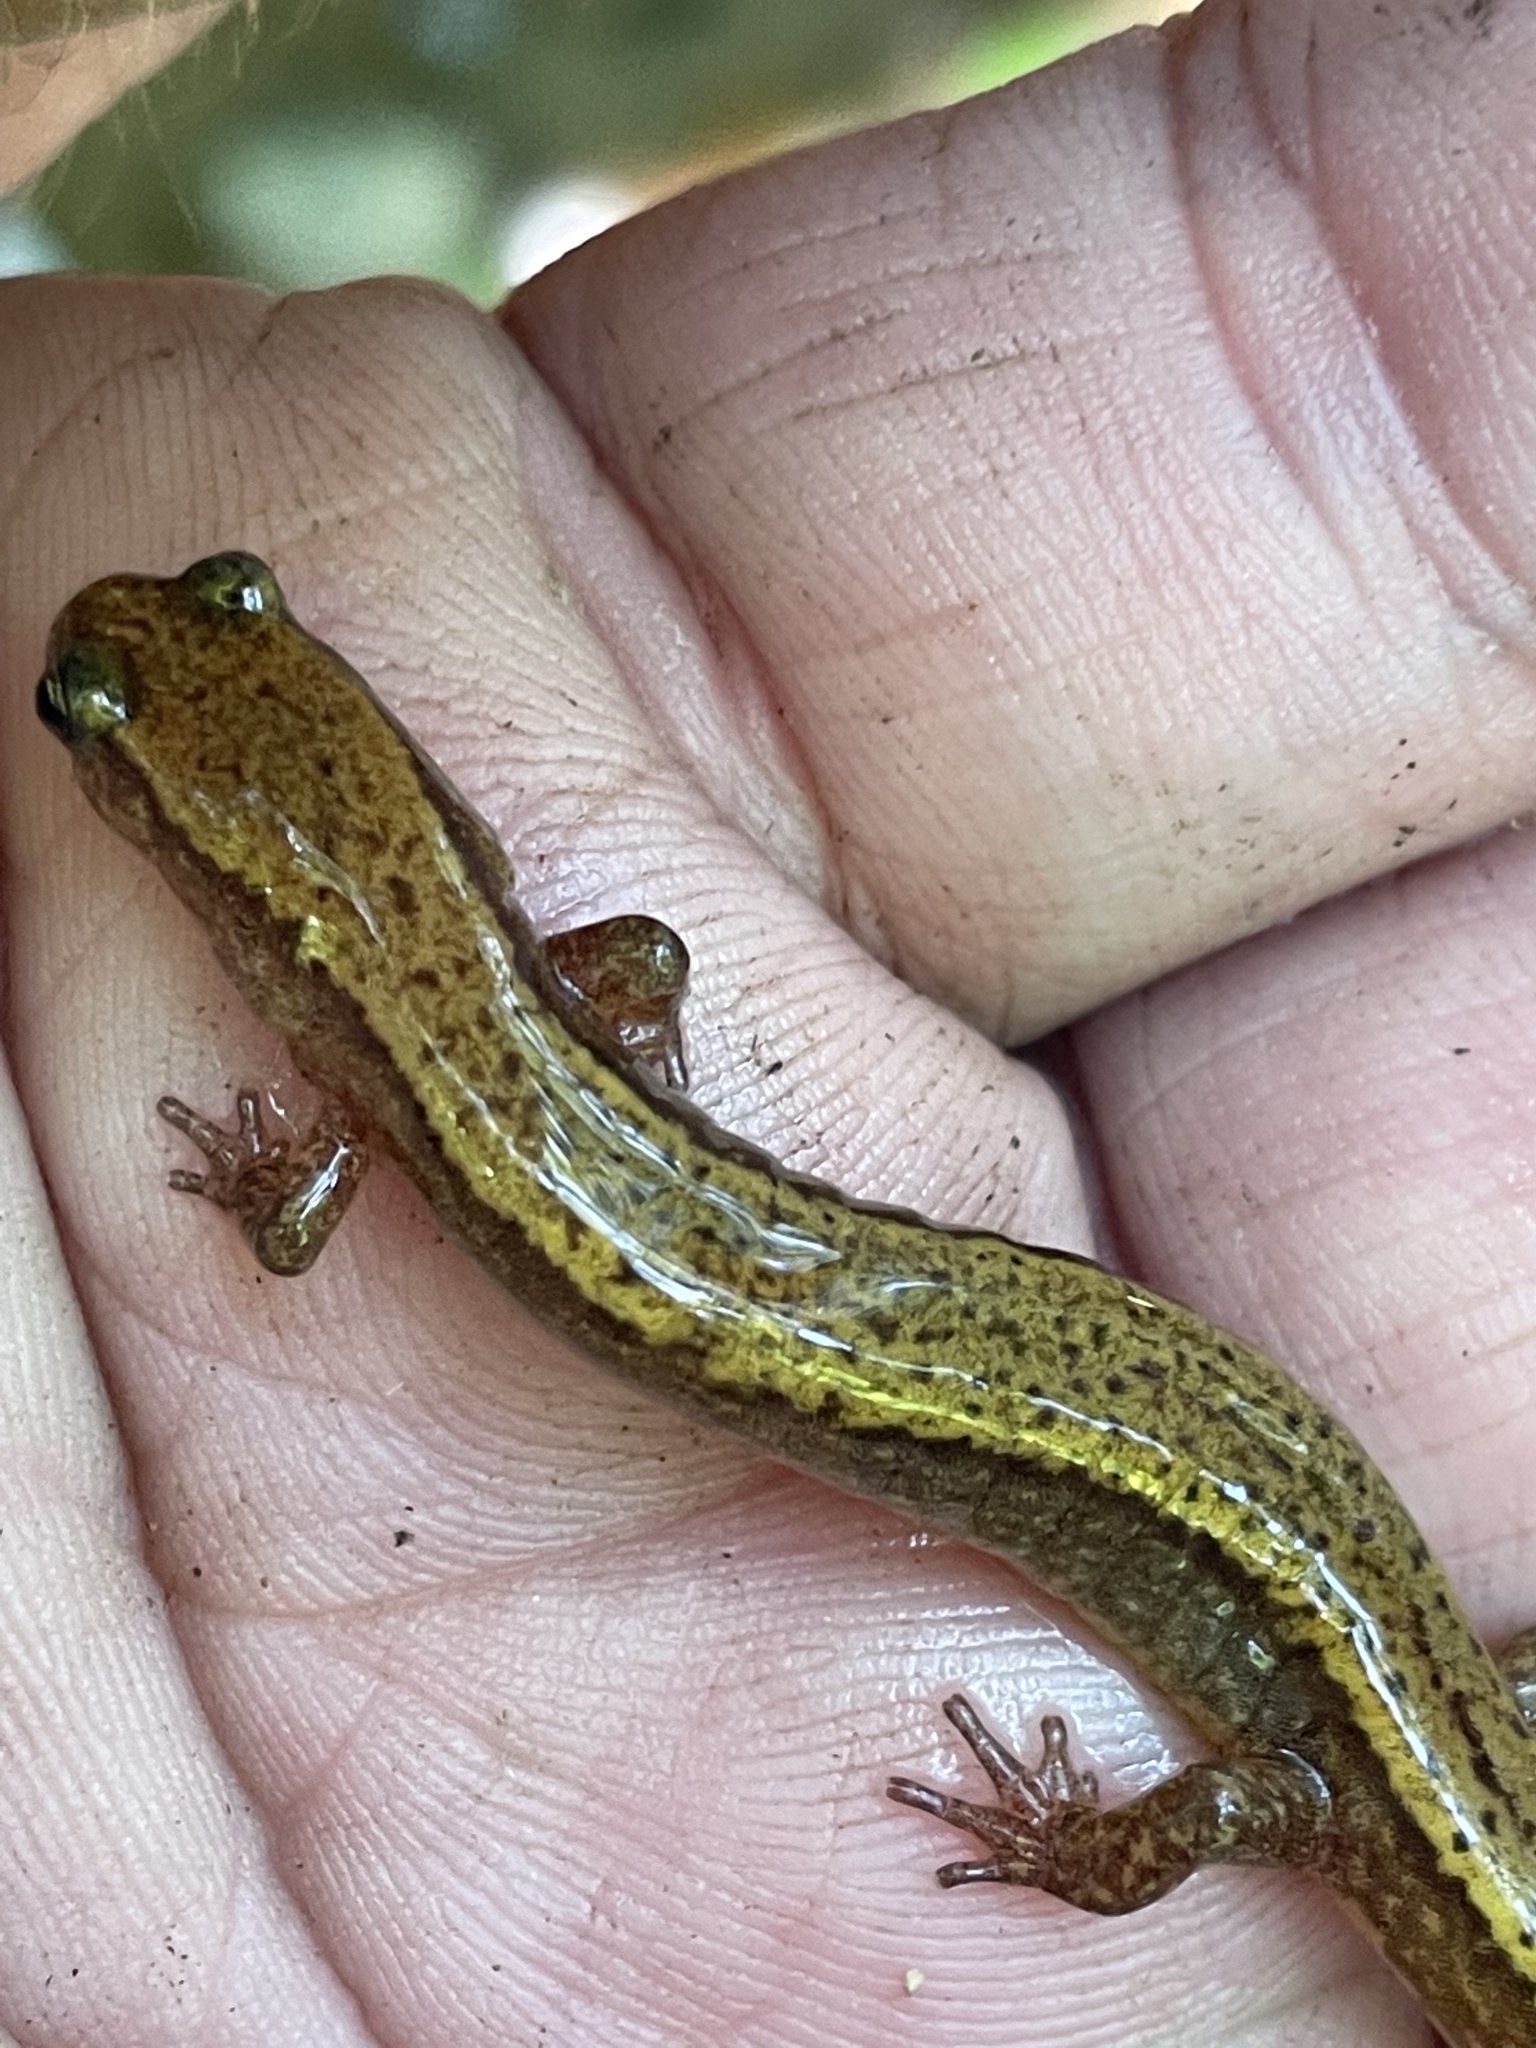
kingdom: Animalia
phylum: Chordata
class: Amphibia
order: Caudata
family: Plethodontidae
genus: Eurycea
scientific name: Eurycea cirrigera
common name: Southern two-lined salamander
